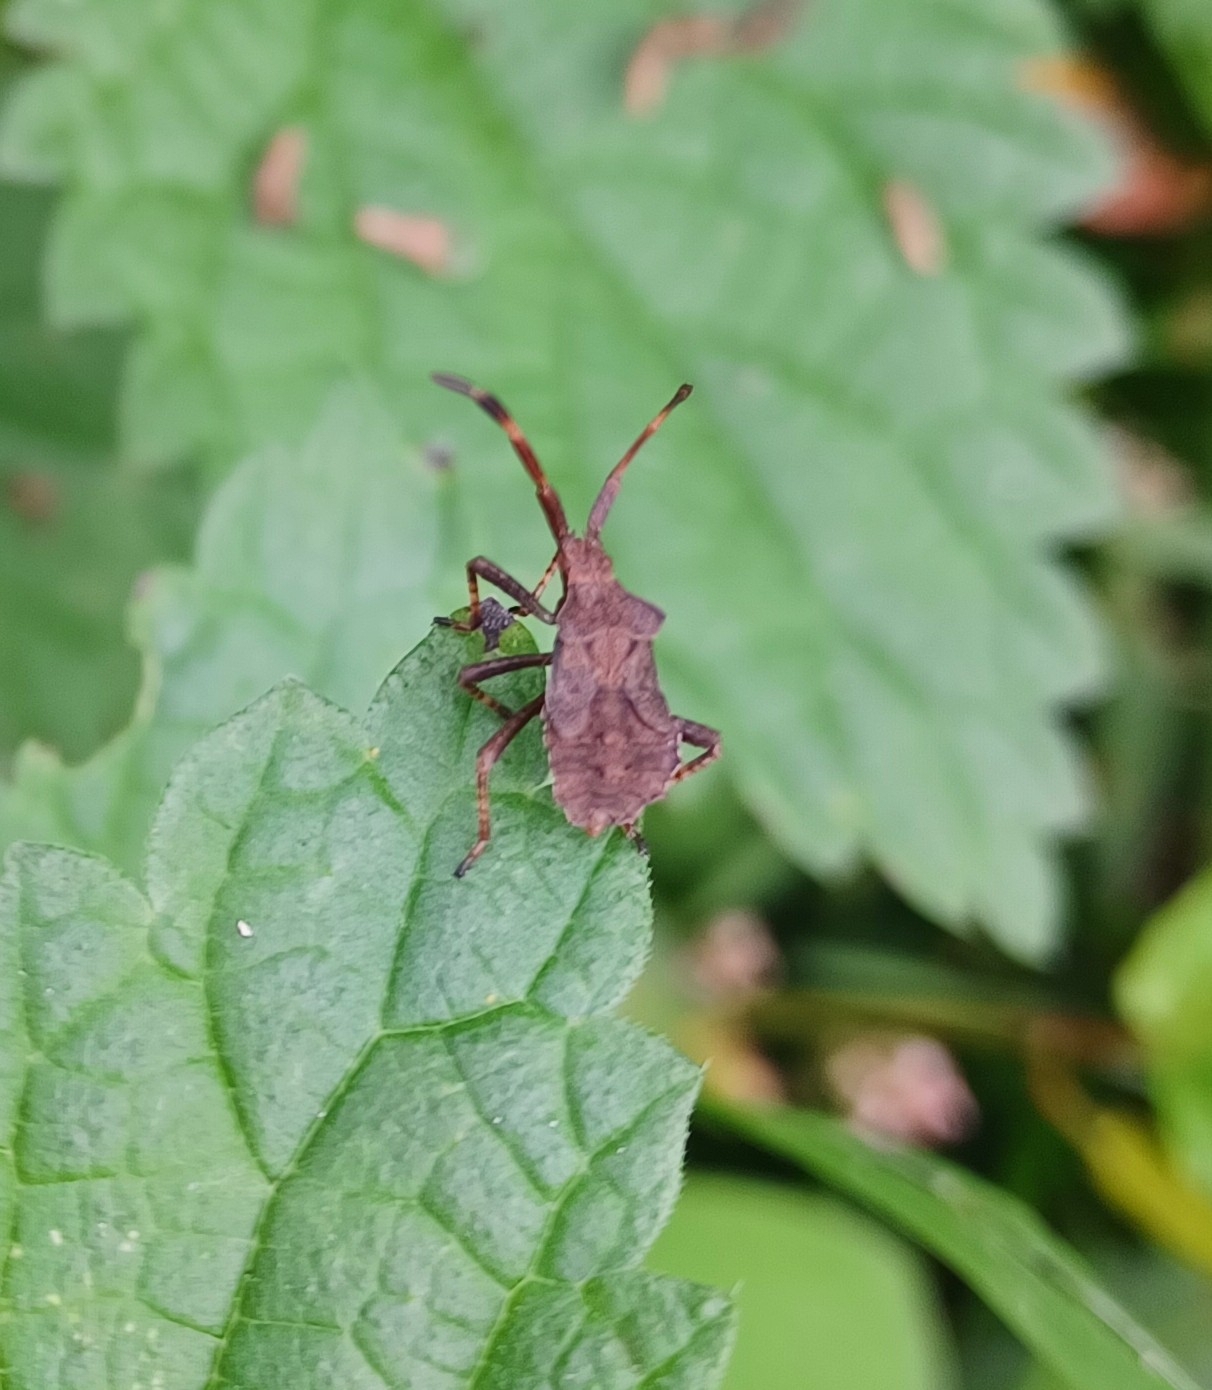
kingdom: Animalia
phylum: Arthropoda
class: Insecta
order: Hemiptera
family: Coreidae
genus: Coreus
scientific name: Coreus marginatus
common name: Dock bug
